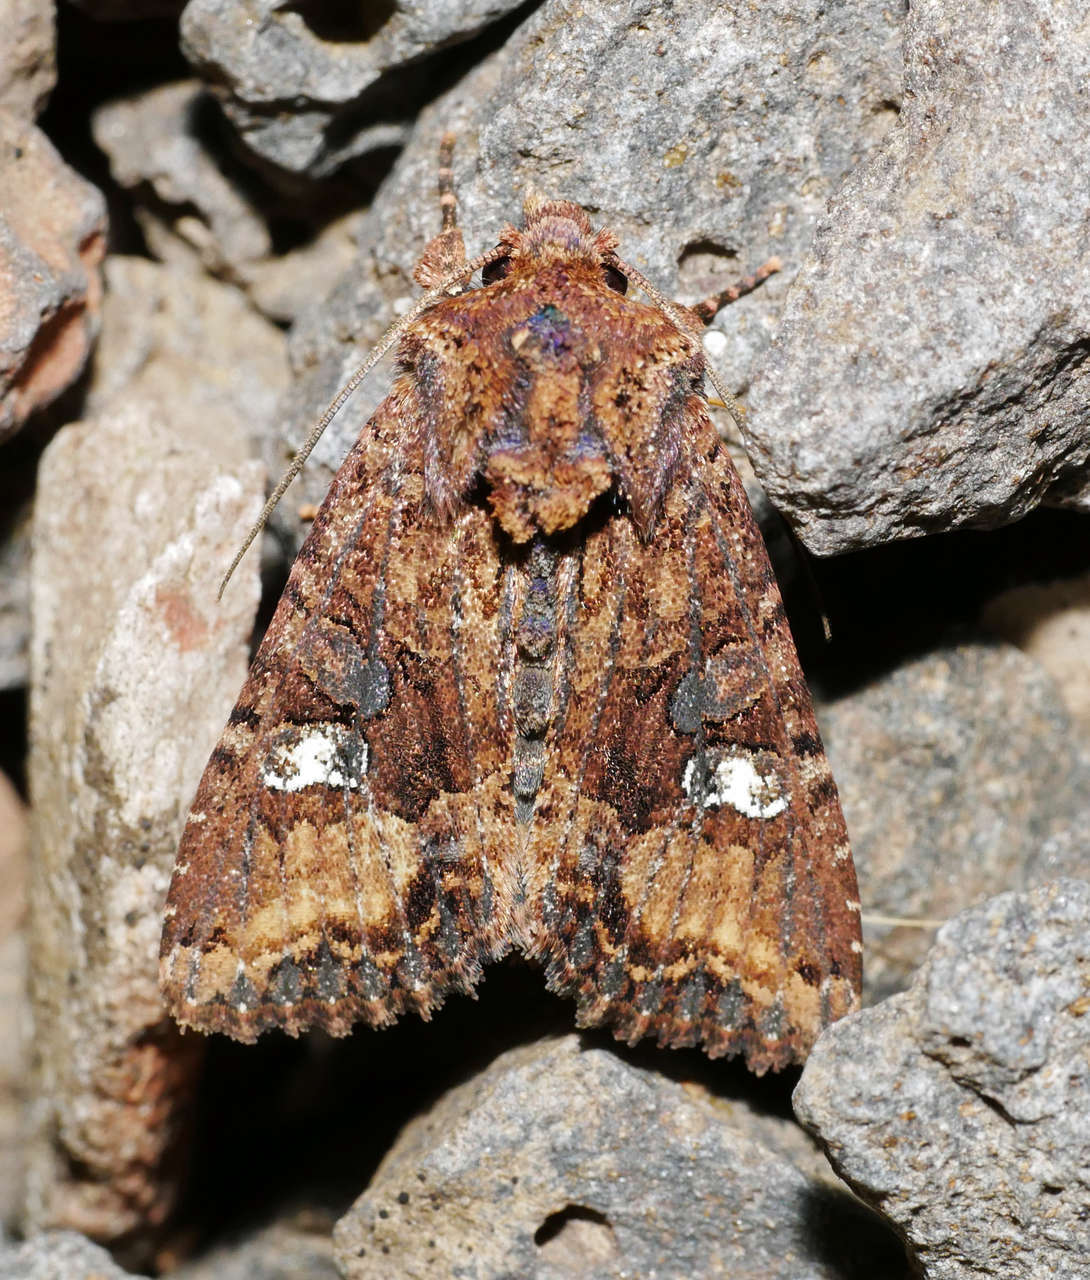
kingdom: Animalia
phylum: Arthropoda
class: Insecta
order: Lepidoptera
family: Noctuidae
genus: Neumichtis
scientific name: Neumichtis saliaris
